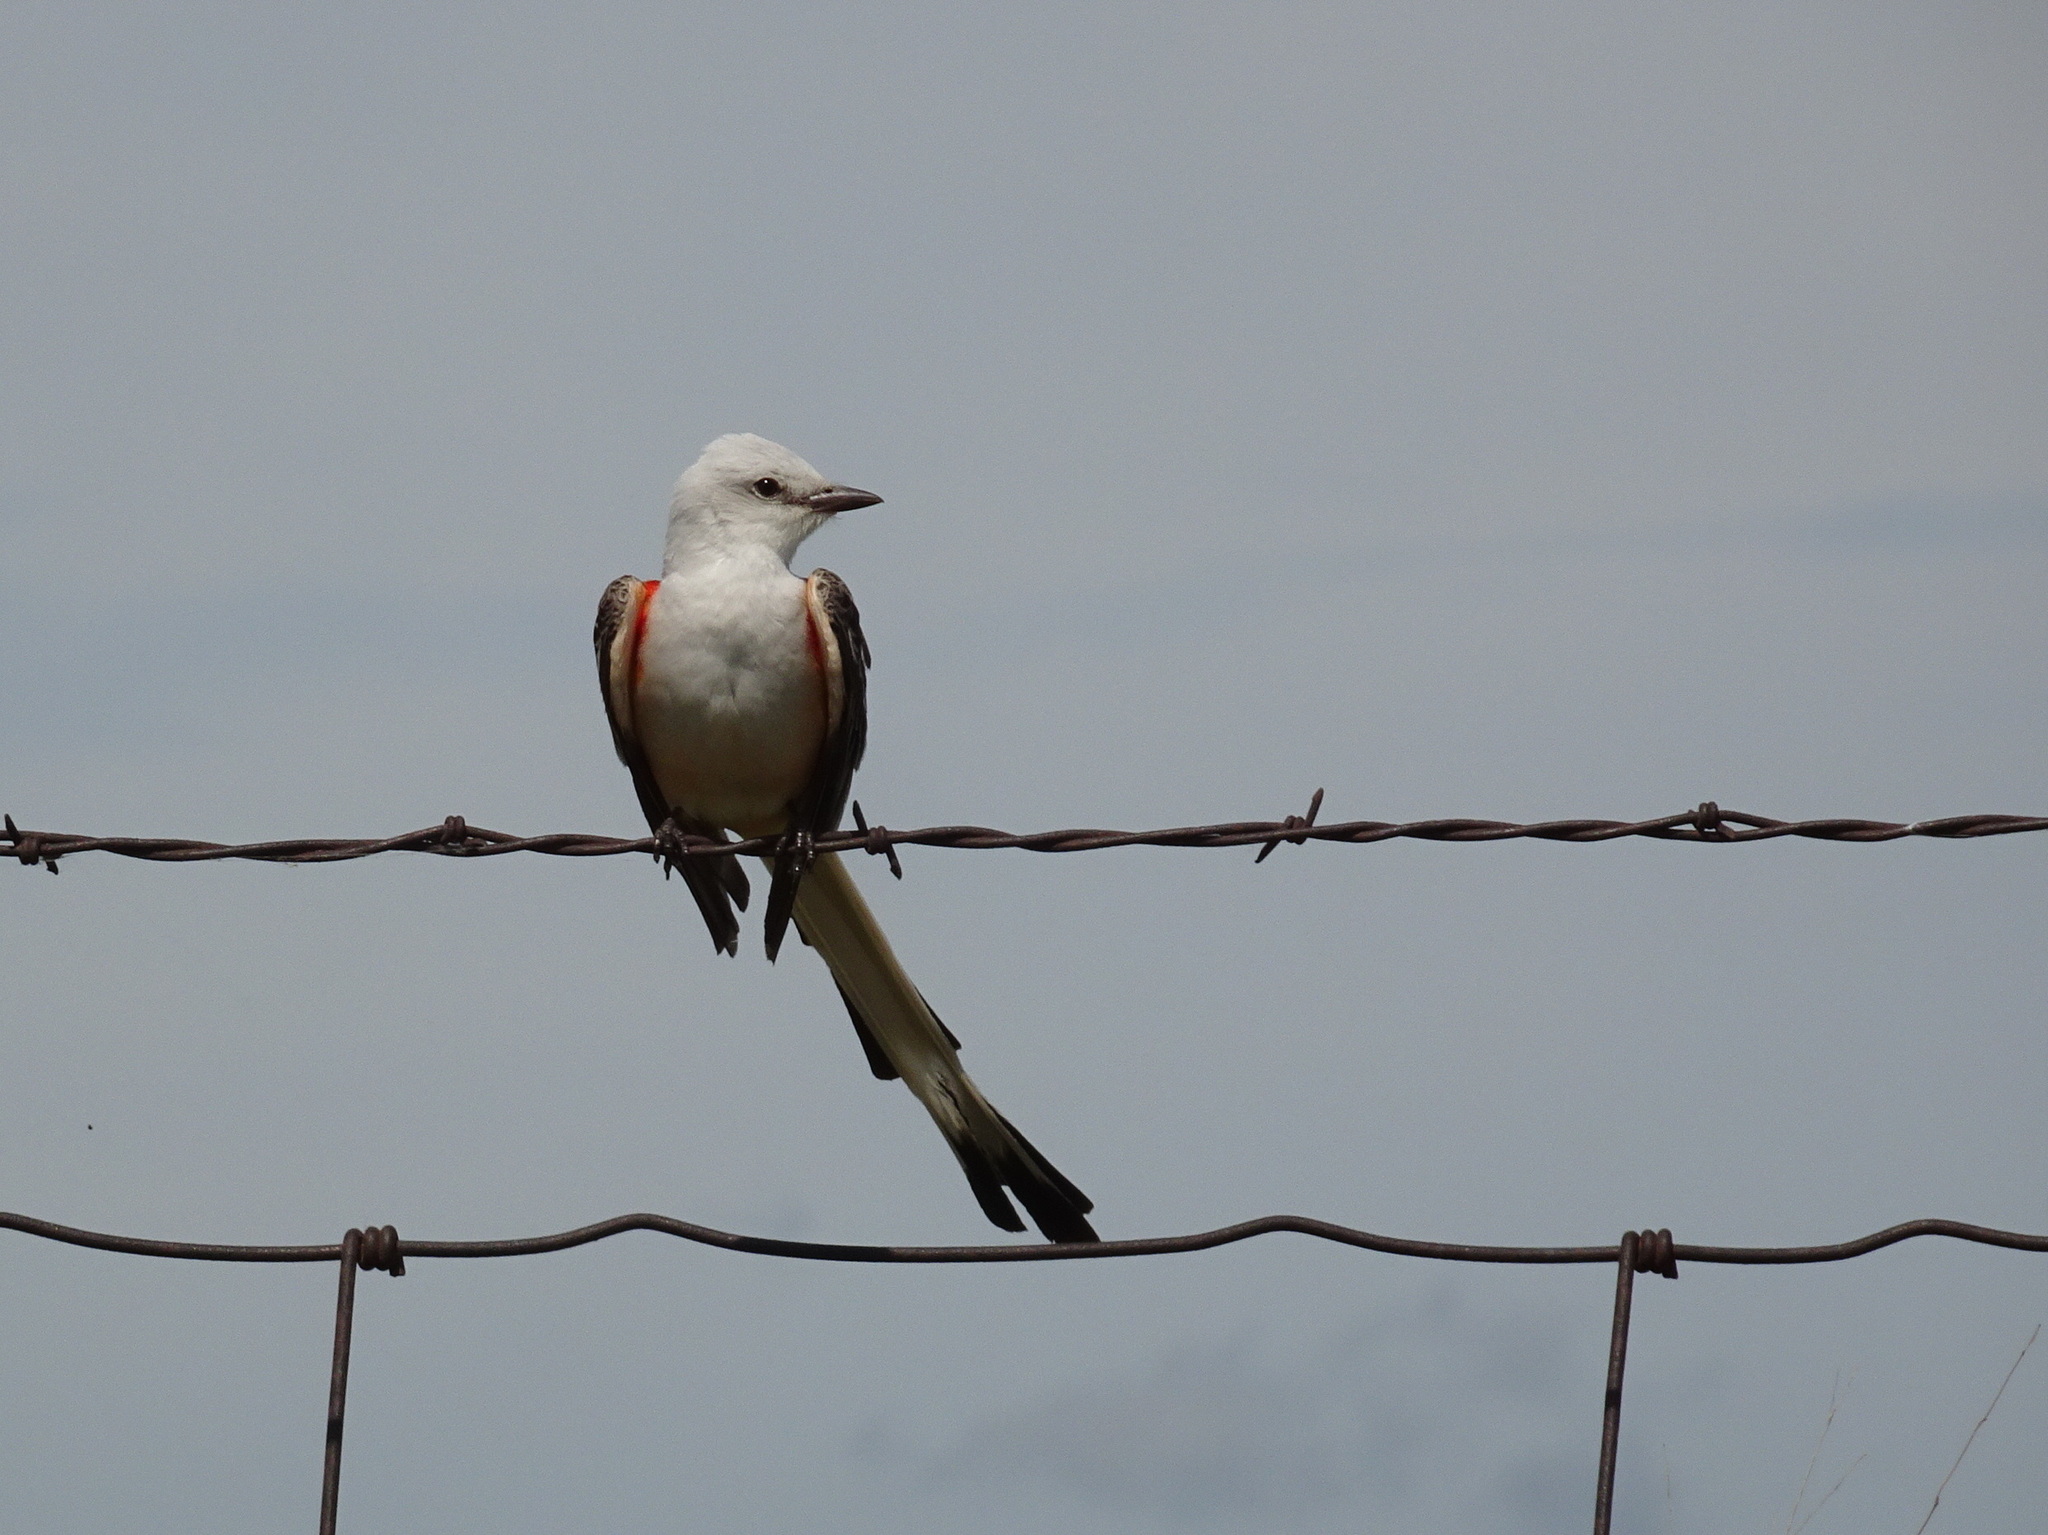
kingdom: Animalia
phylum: Chordata
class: Aves
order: Passeriformes
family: Tyrannidae
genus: Tyrannus
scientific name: Tyrannus forficatus
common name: Scissor-tailed flycatcher
